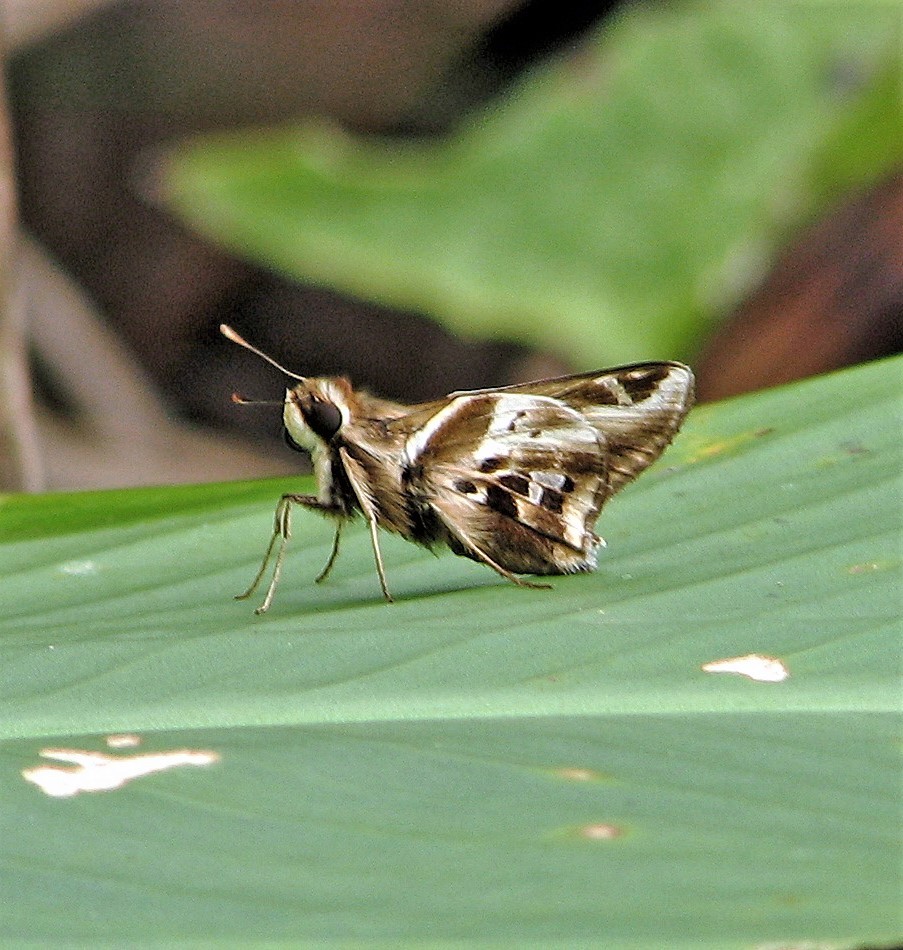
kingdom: Animalia
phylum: Arthropoda
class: Insecta
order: Lepidoptera
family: Hesperiidae
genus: Thespieus
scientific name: Thespieus ethemides
